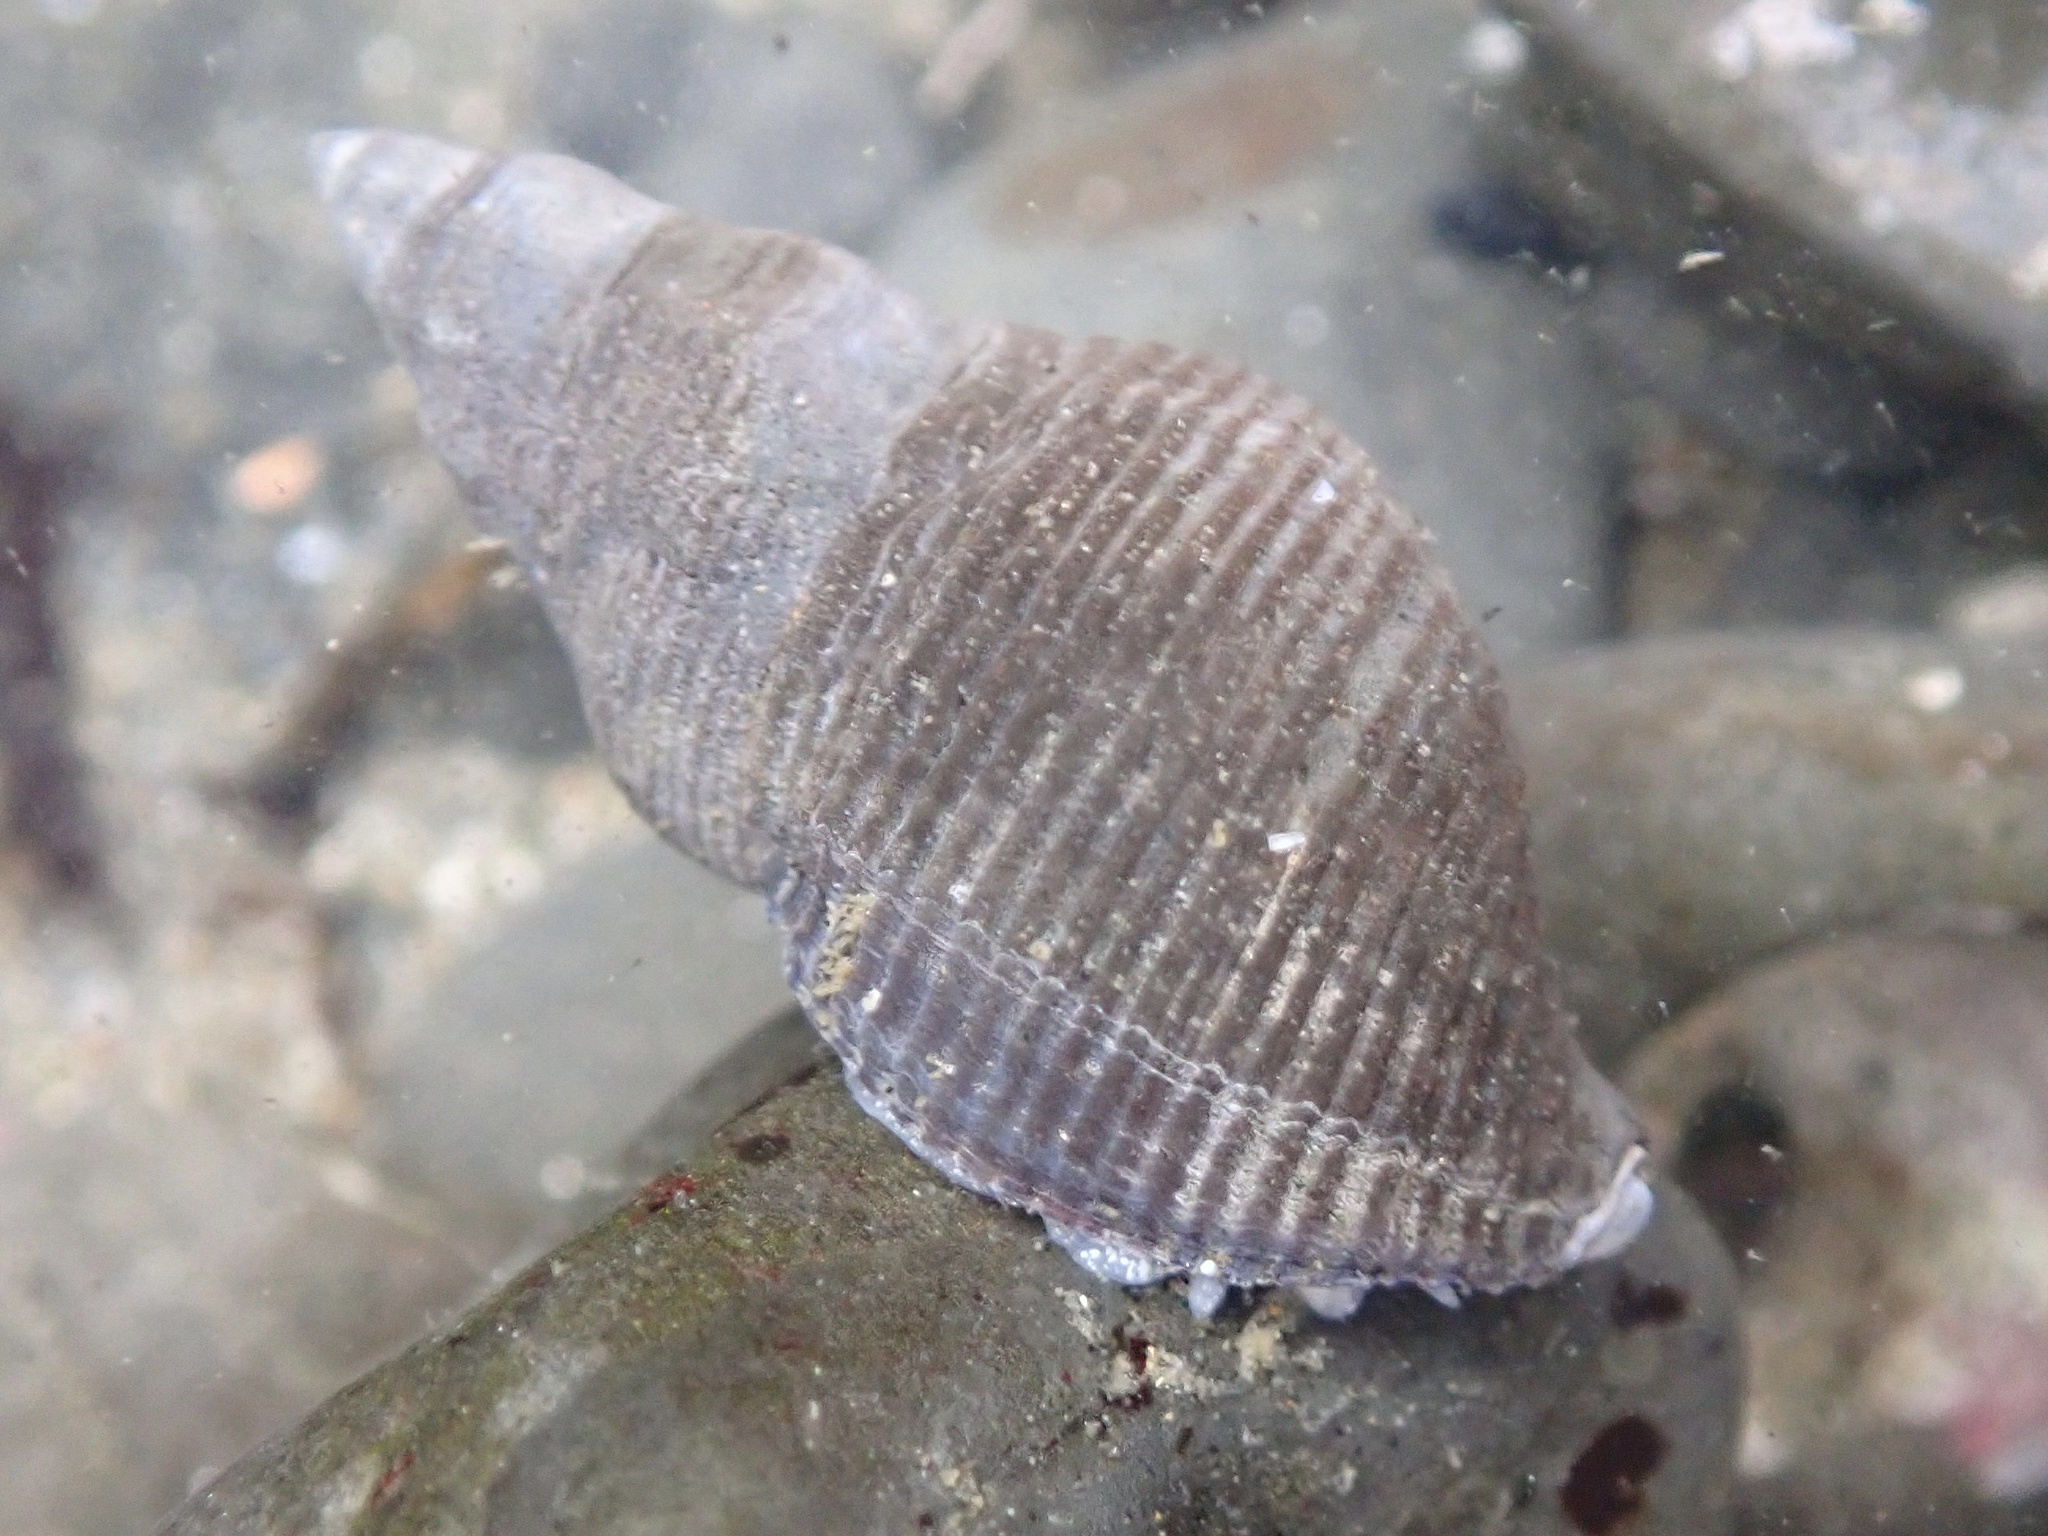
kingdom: Animalia
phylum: Mollusca
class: Gastropoda
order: Neogastropoda
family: Tudiclidae
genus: Lirabuccinum
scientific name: Lirabuccinum dirum
